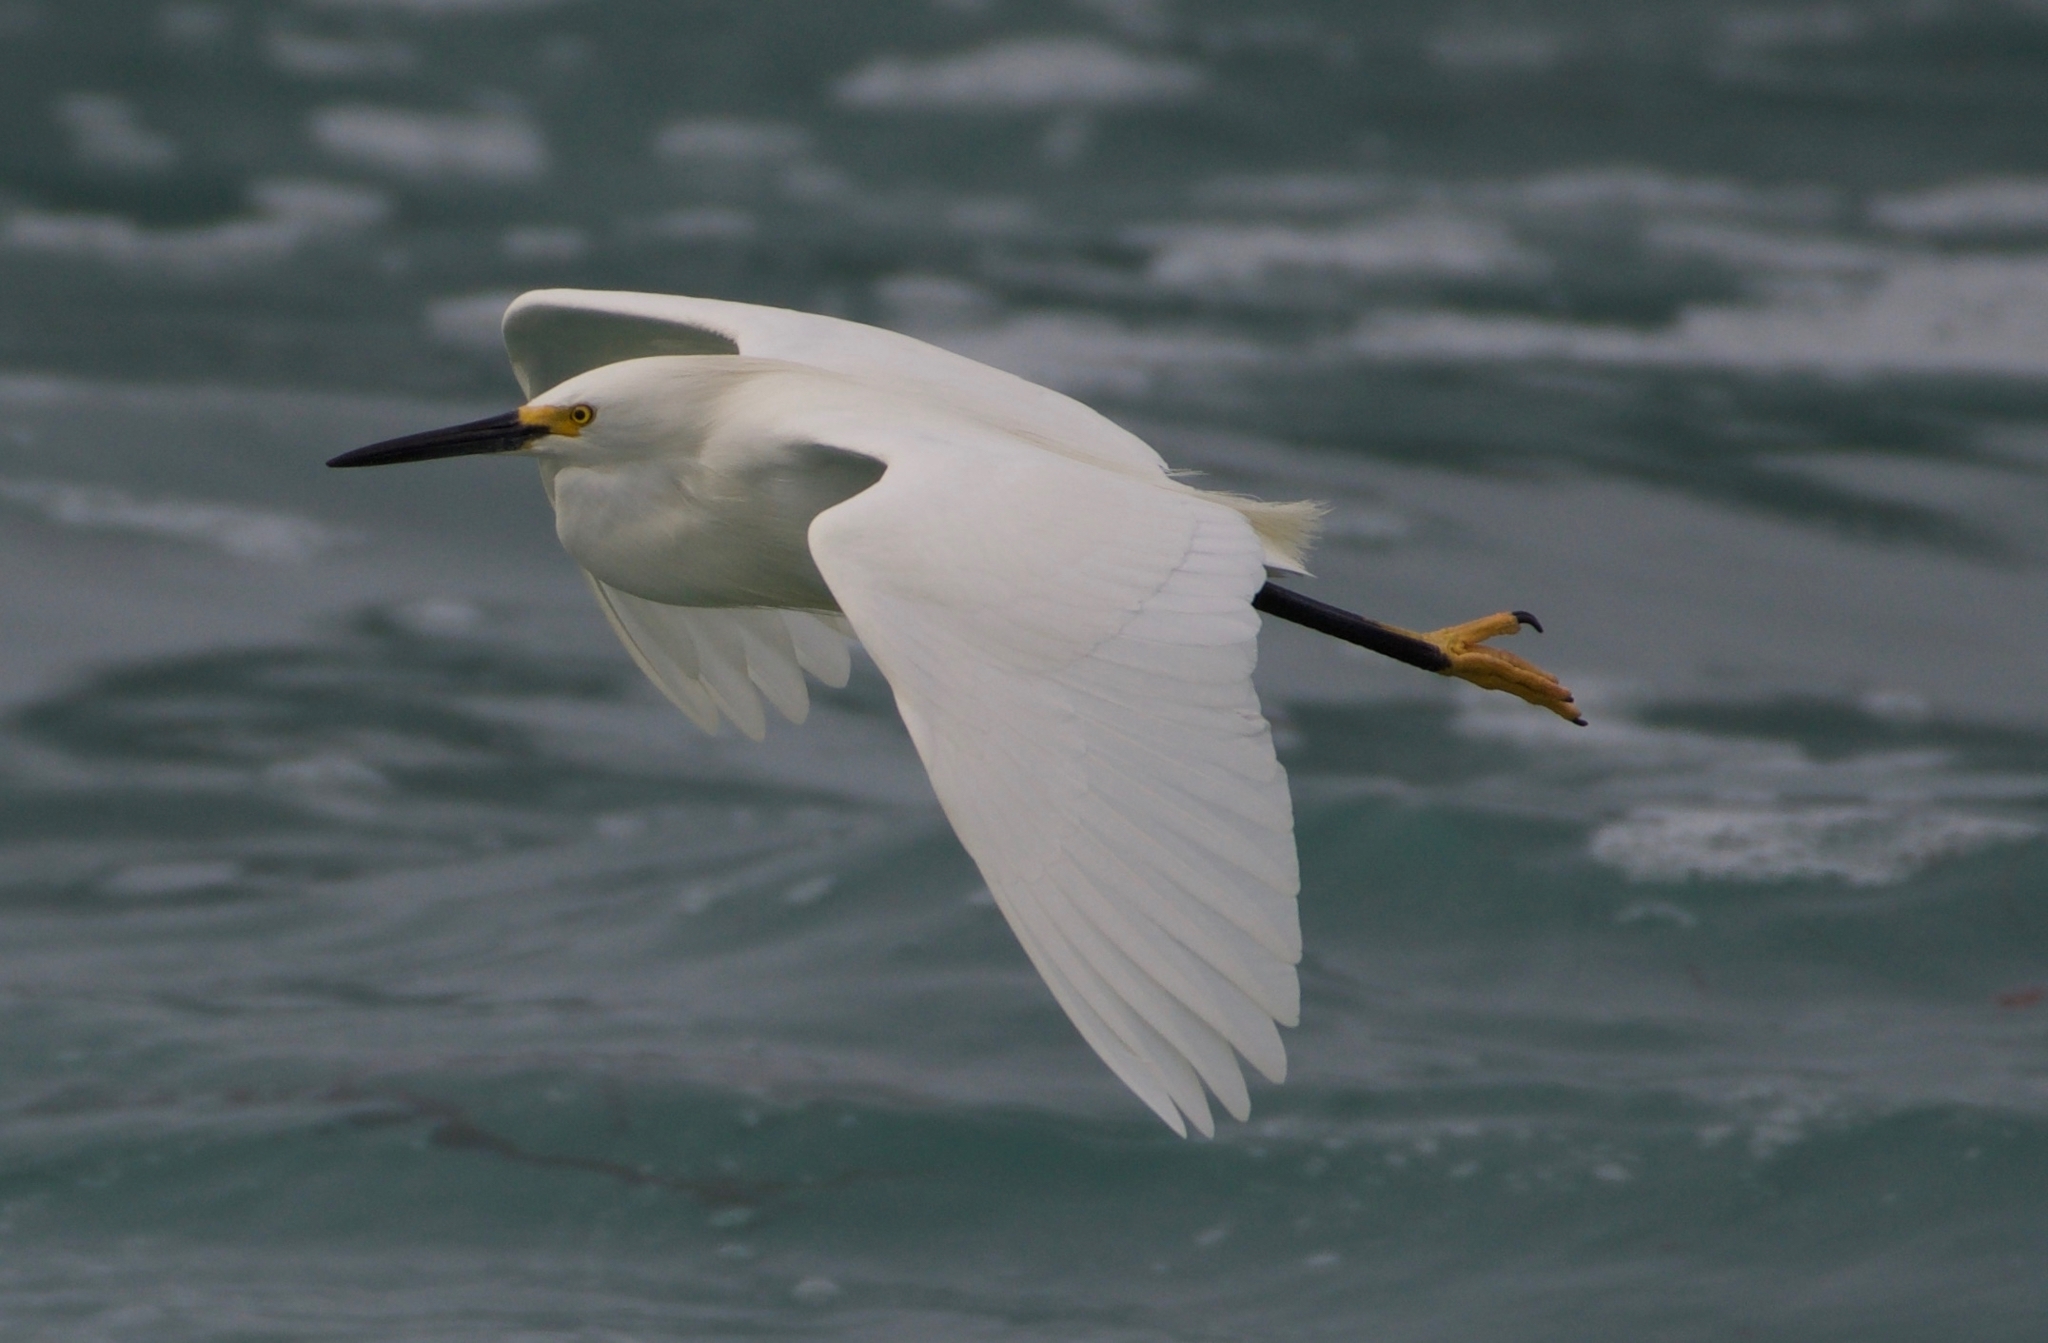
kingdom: Animalia
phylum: Chordata
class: Aves
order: Pelecaniformes
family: Ardeidae
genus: Egretta
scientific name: Egretta thula
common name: Snowy egret
